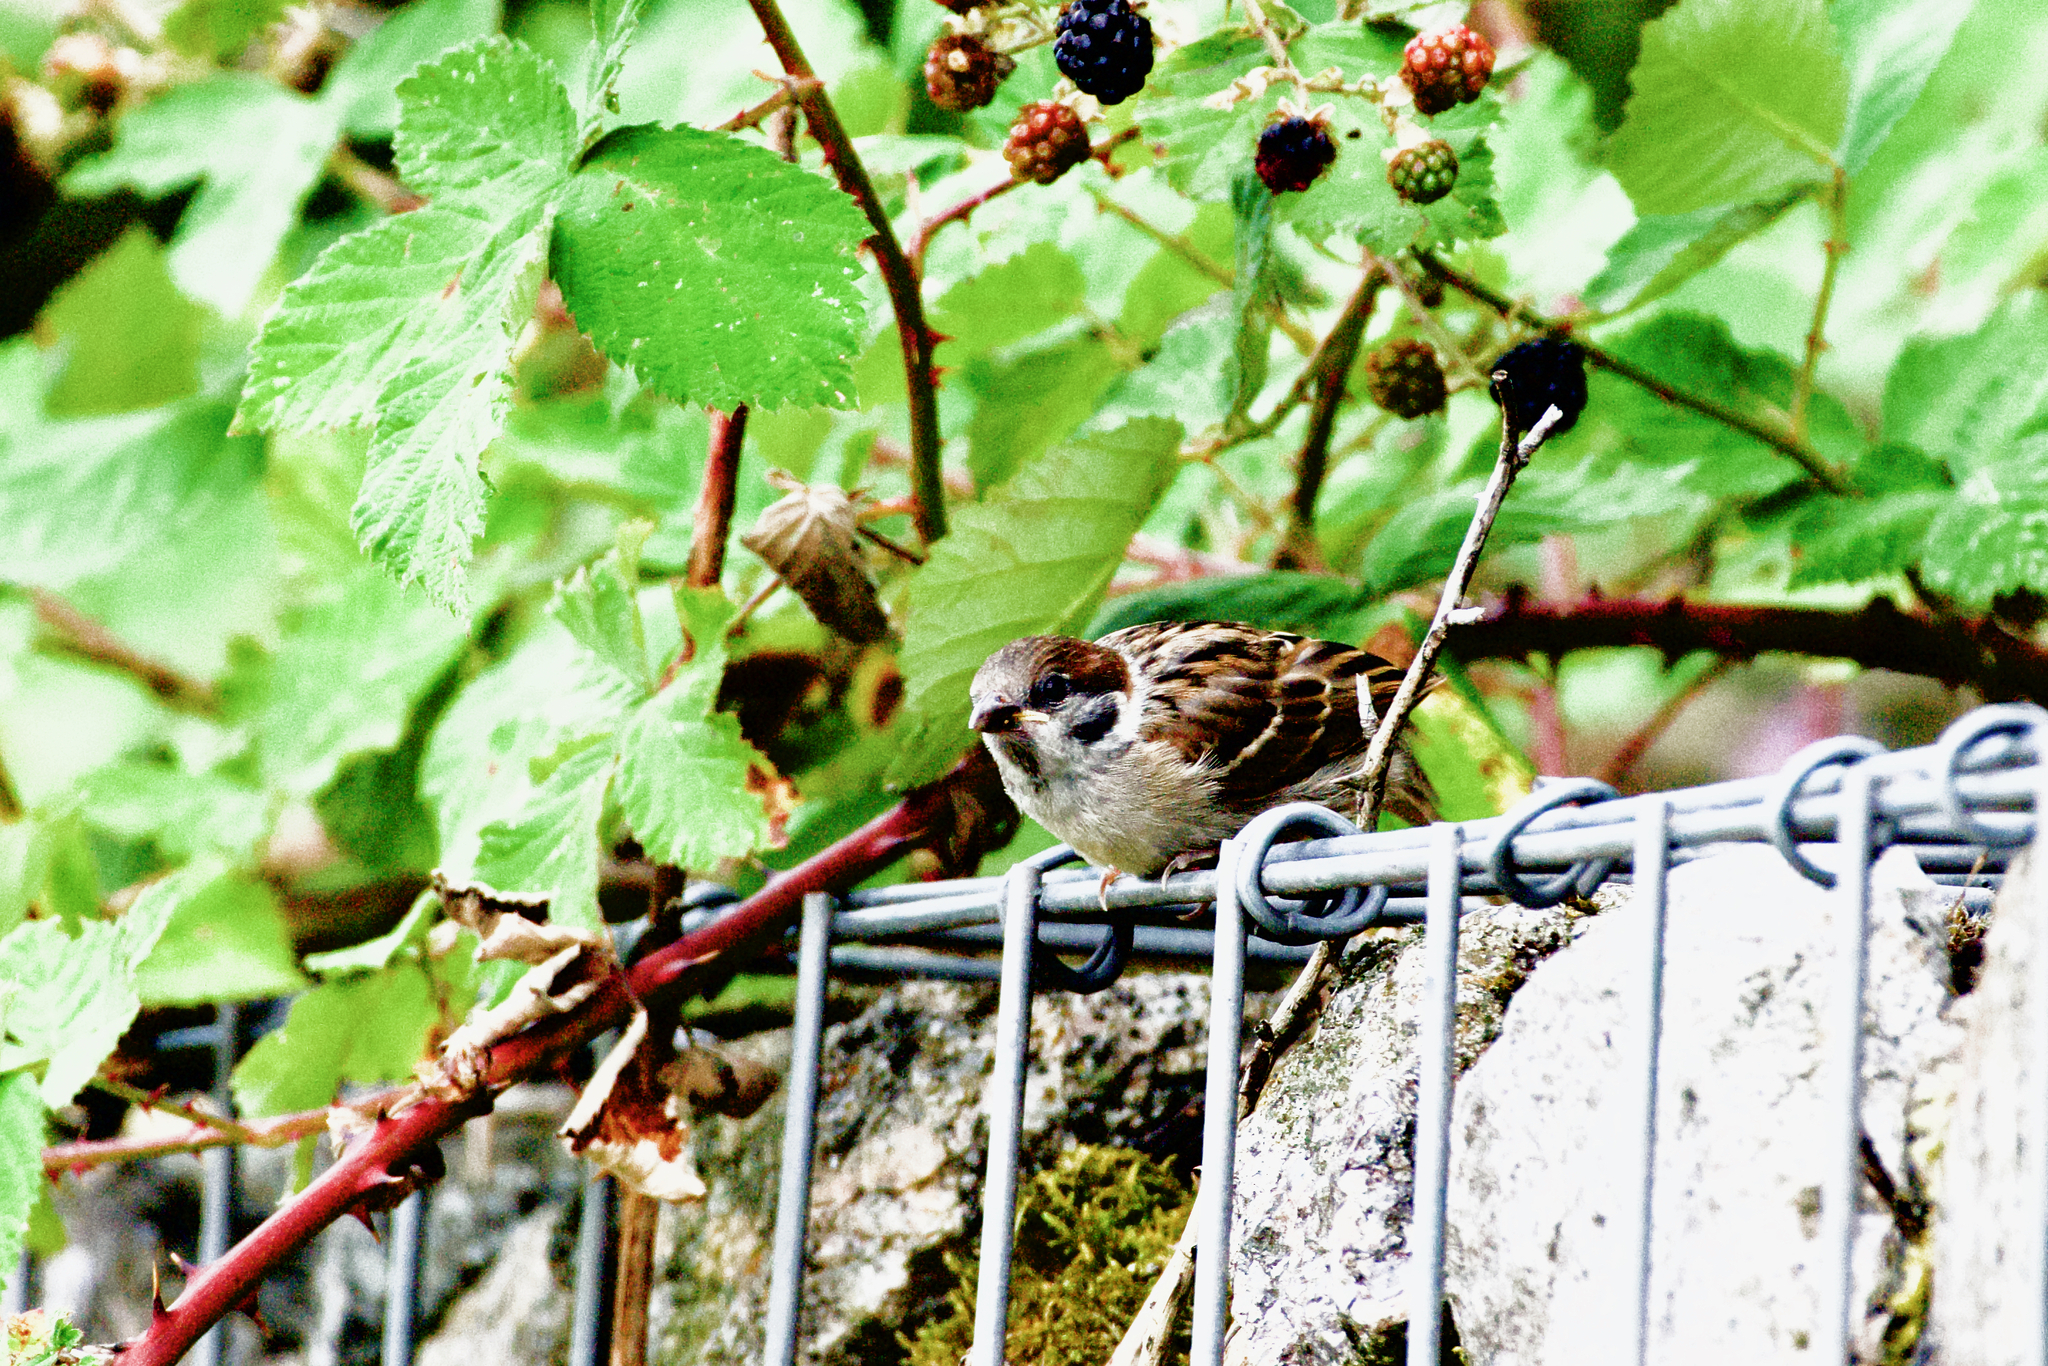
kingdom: Animalia
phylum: Chordata
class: Aves
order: Passeriformes
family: Passeridae
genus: Passer
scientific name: Passer montanus
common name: Eurasian tree sparrow
